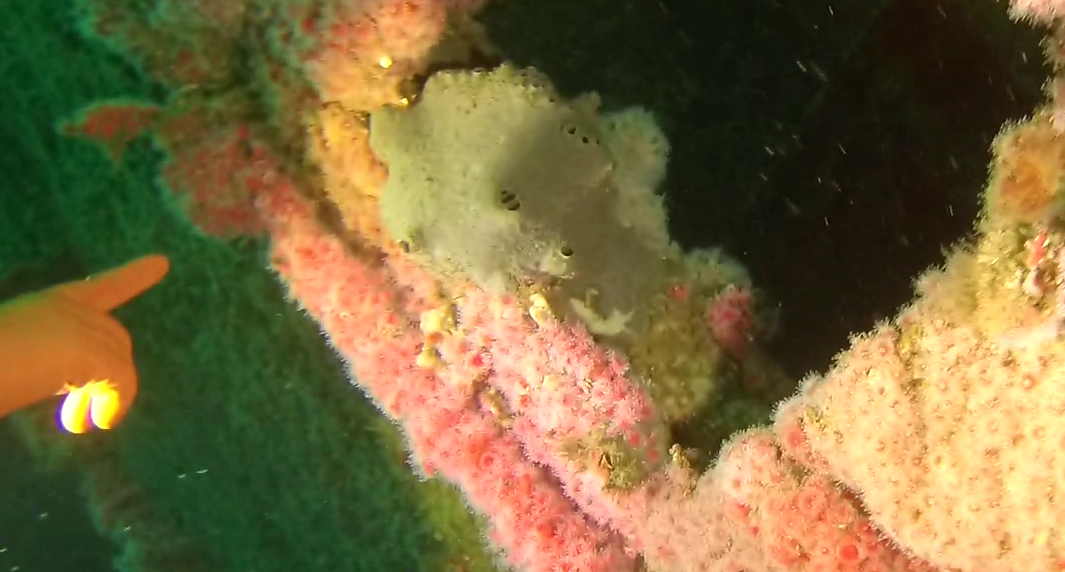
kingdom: Animalia
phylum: Porifera
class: Demospongiae
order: Clionaida
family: Clionaidae
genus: Spheciospongia
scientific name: Spheciospongia confoederata
